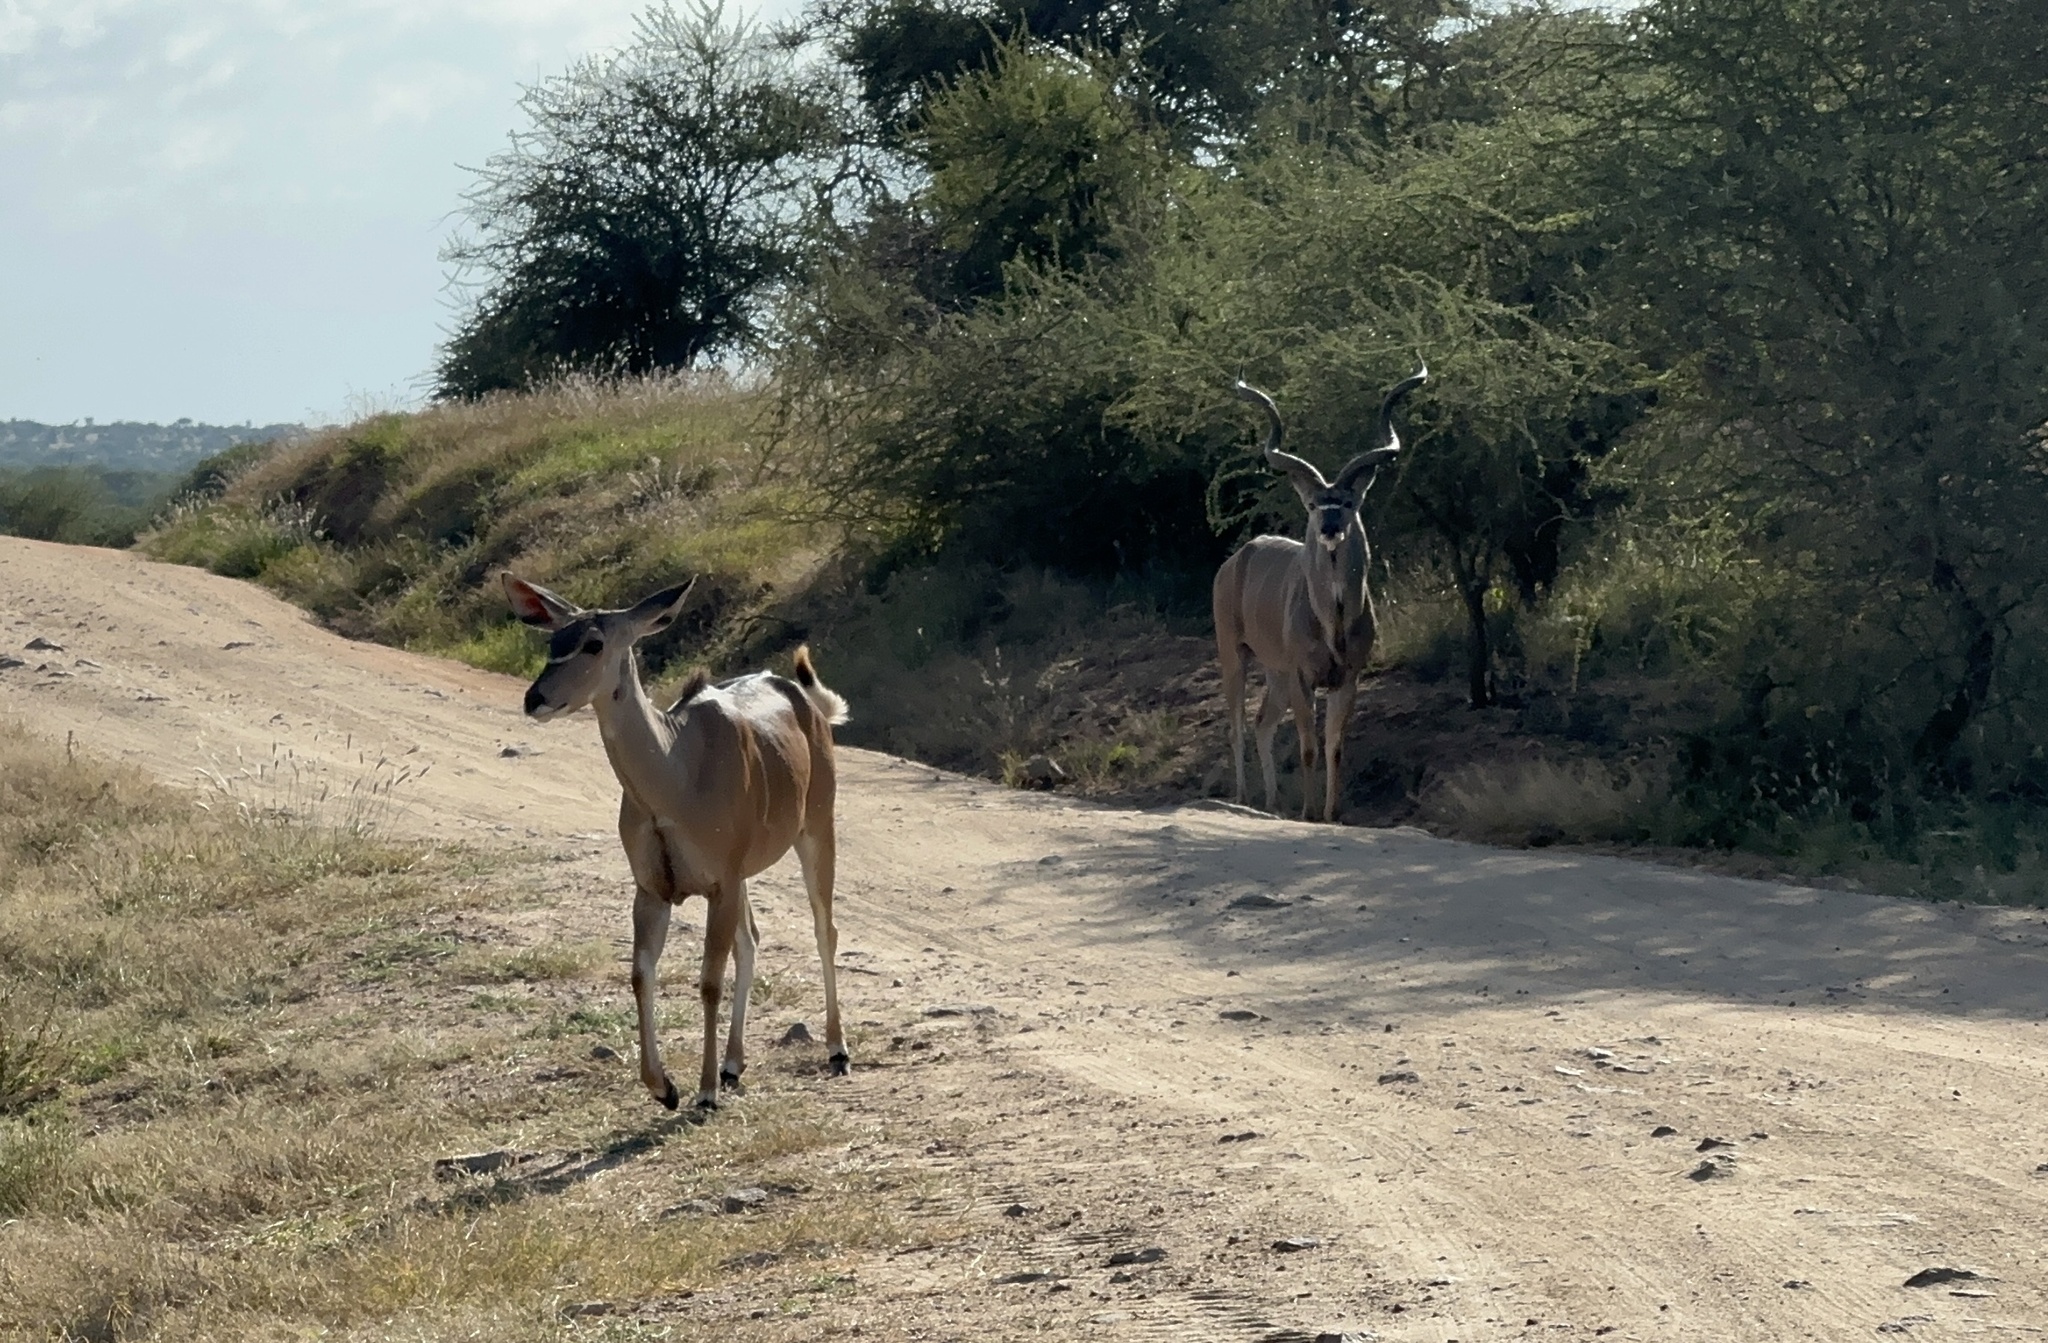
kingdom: Animalia
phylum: Chordata
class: Mammalia
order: Artiodactyla
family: Bovidae
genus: Tragelaphus
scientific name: Tragelaphus strepsiceros
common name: Greater kudu
